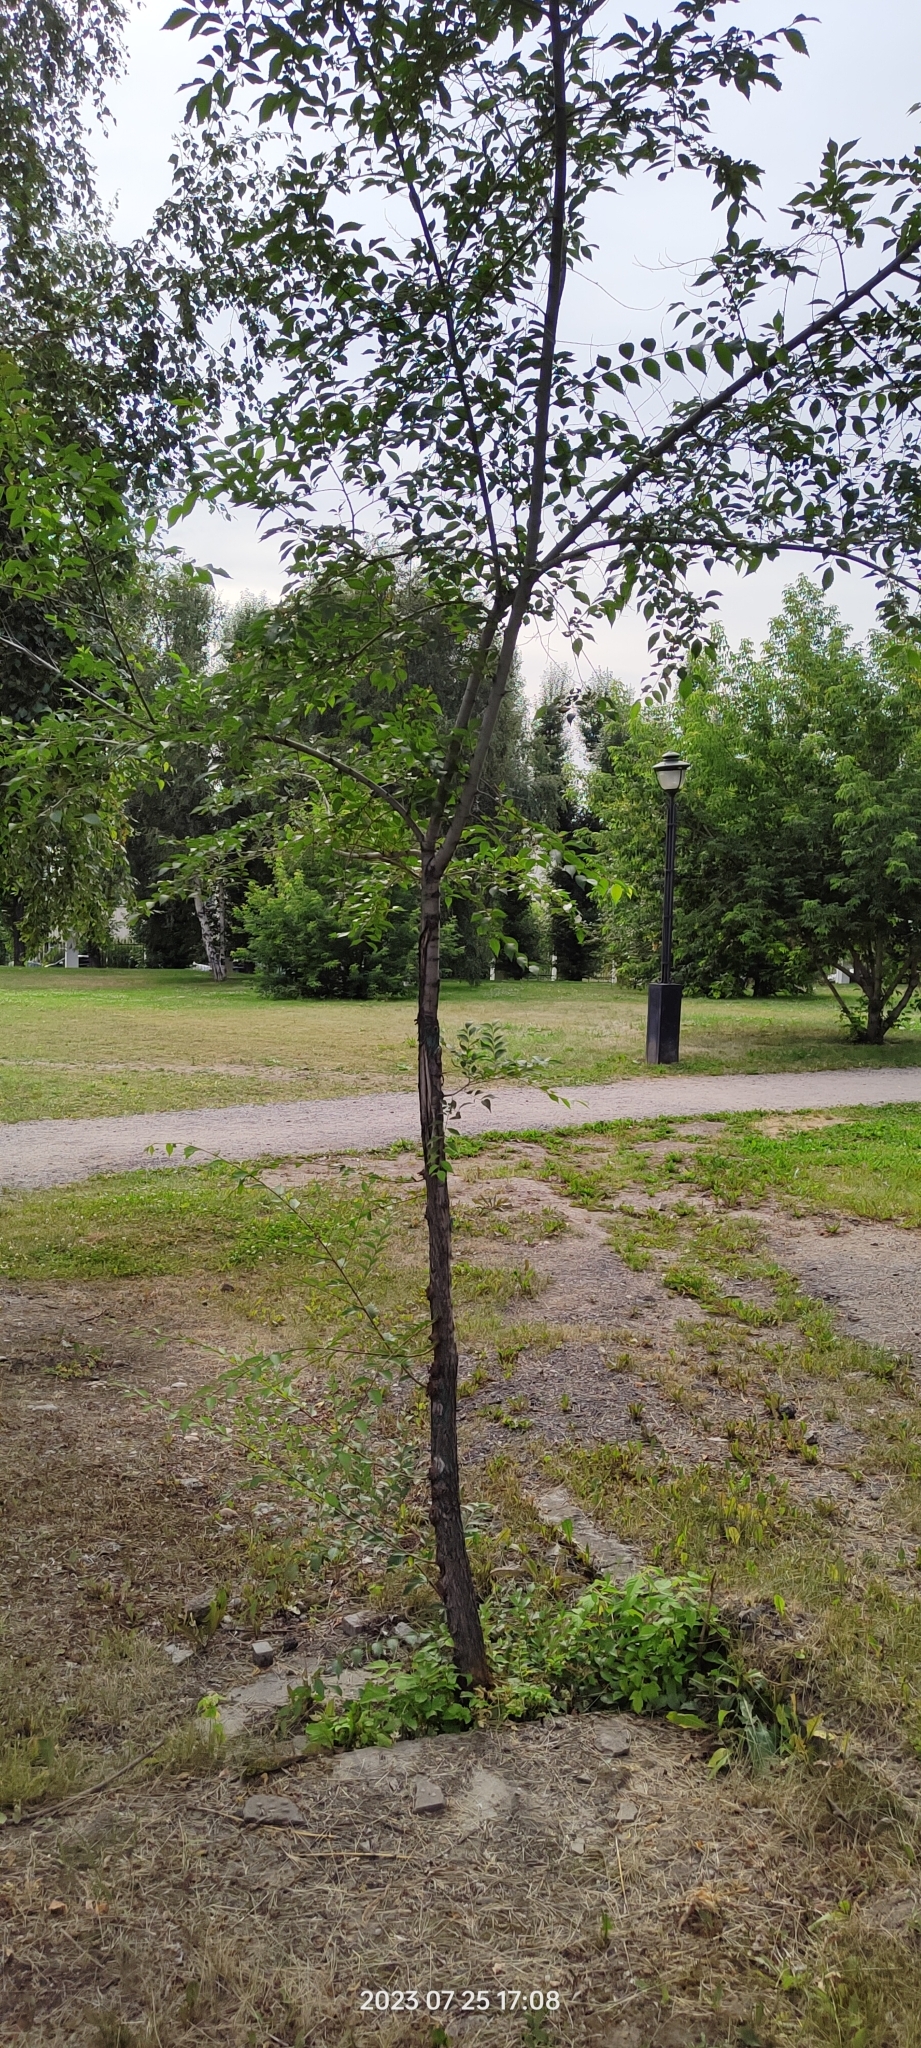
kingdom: Plantae
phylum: Tracheophyta
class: Magnoliopsida
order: Rosales
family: Ulmaceae
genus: Ulmus
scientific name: Ulmus pumila
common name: Siberian elm
